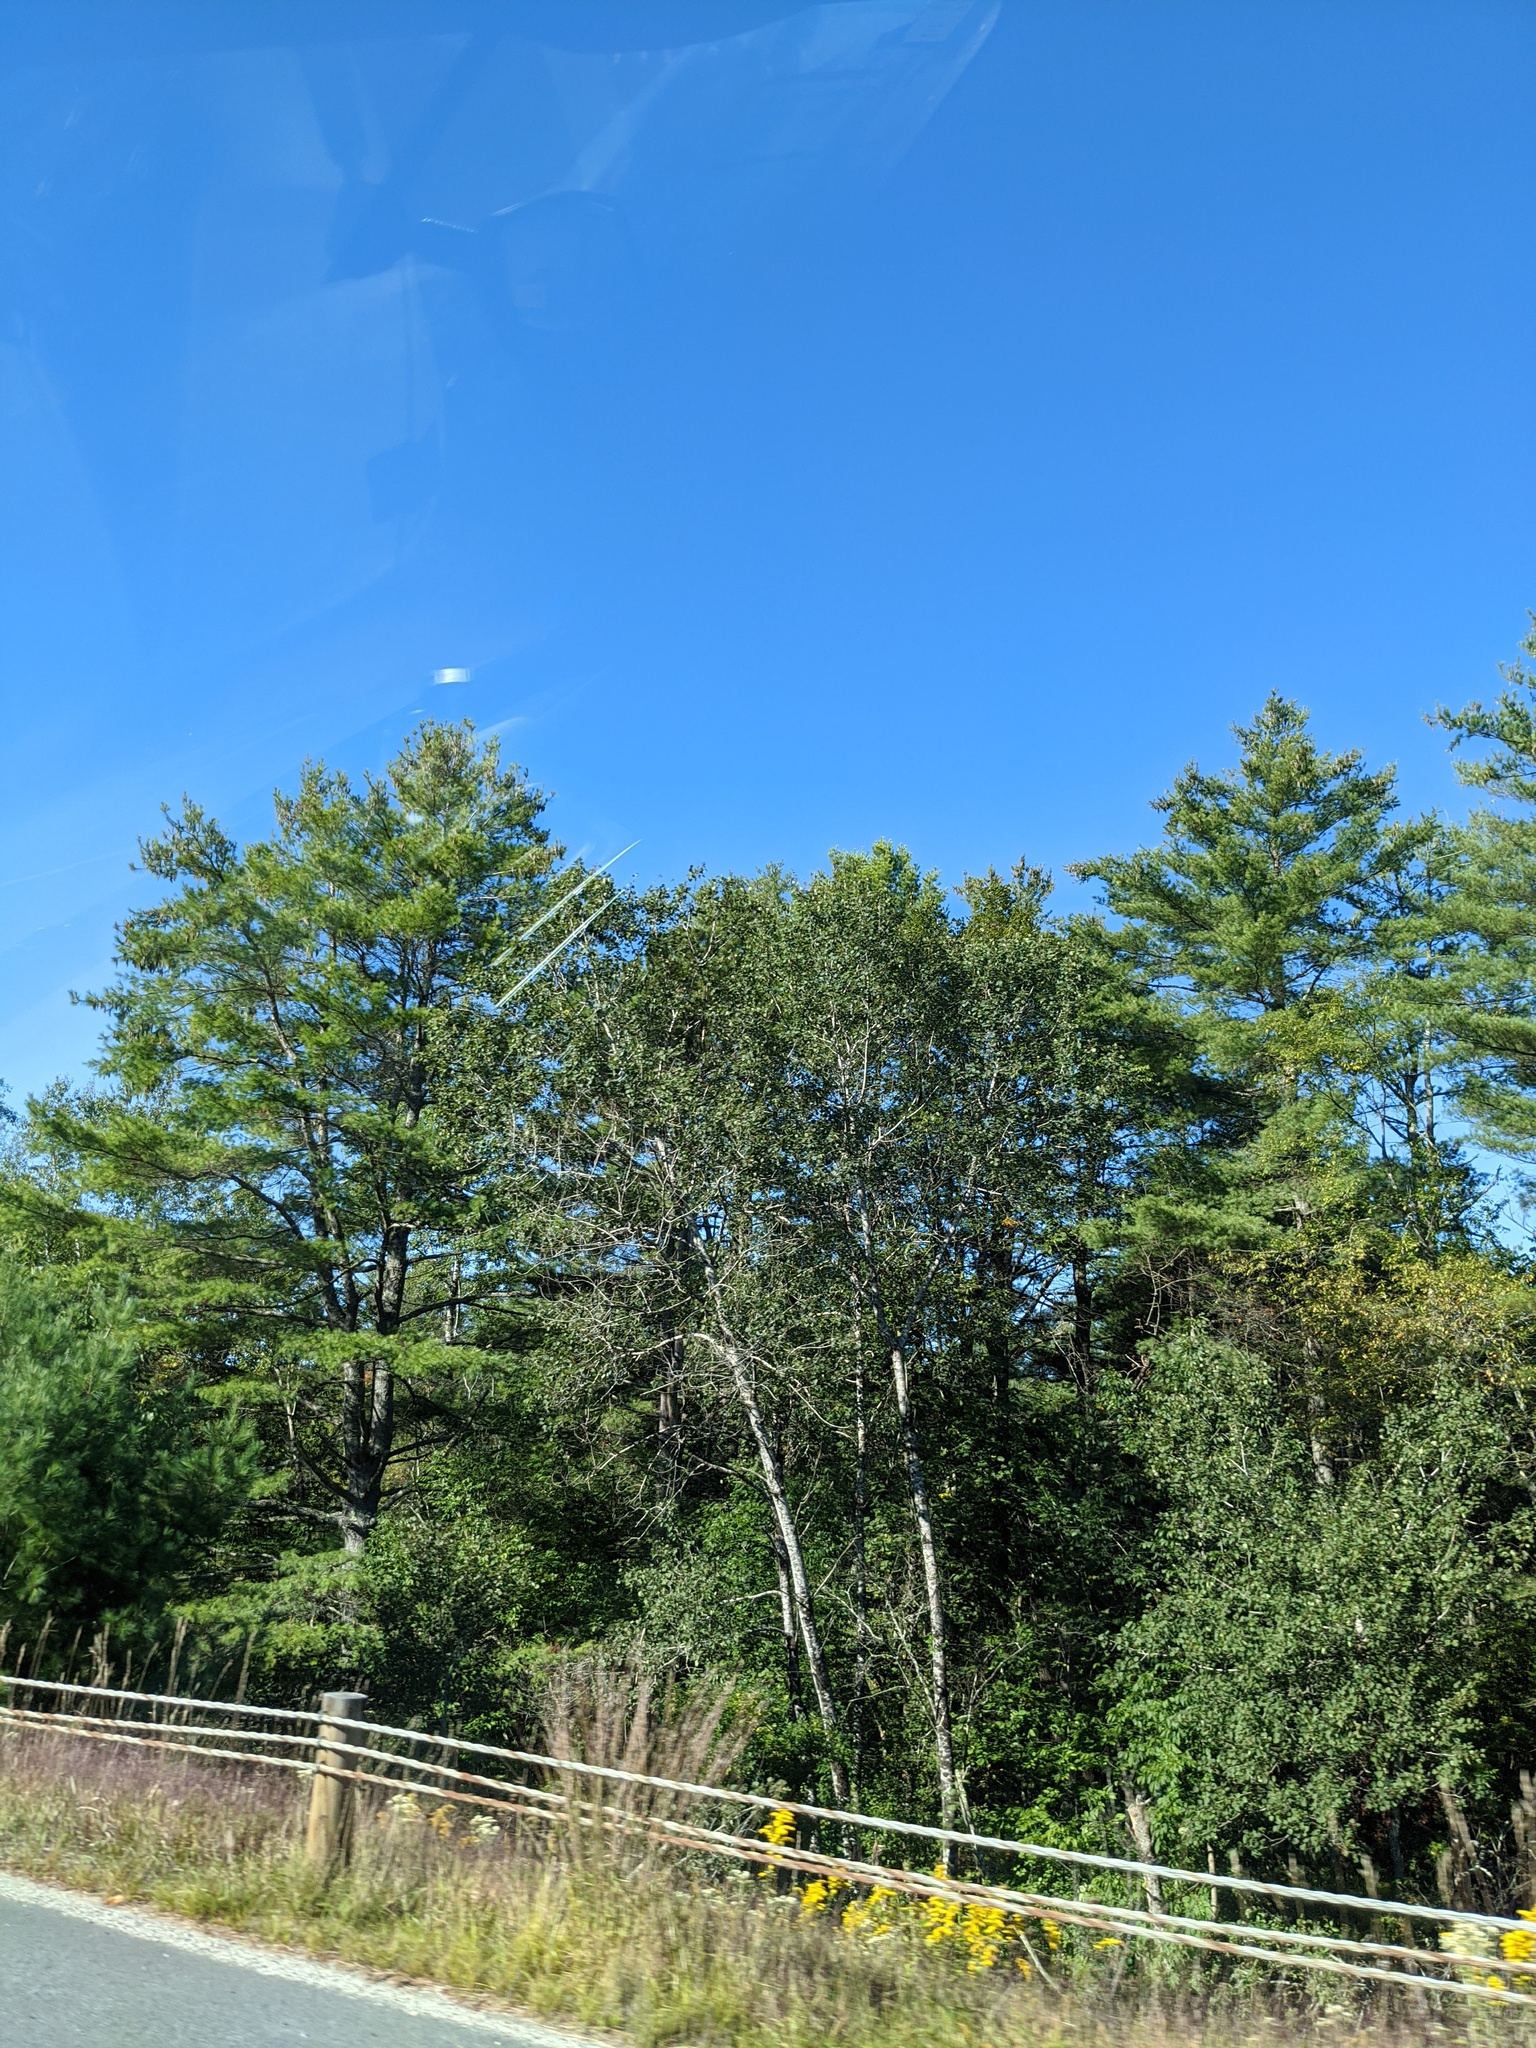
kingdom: Plantae
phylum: Tracheophyta
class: Pinopsida
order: Pinales
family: Pinaceae
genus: Pinus
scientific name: Pinus strobus
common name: Weymouth pine
